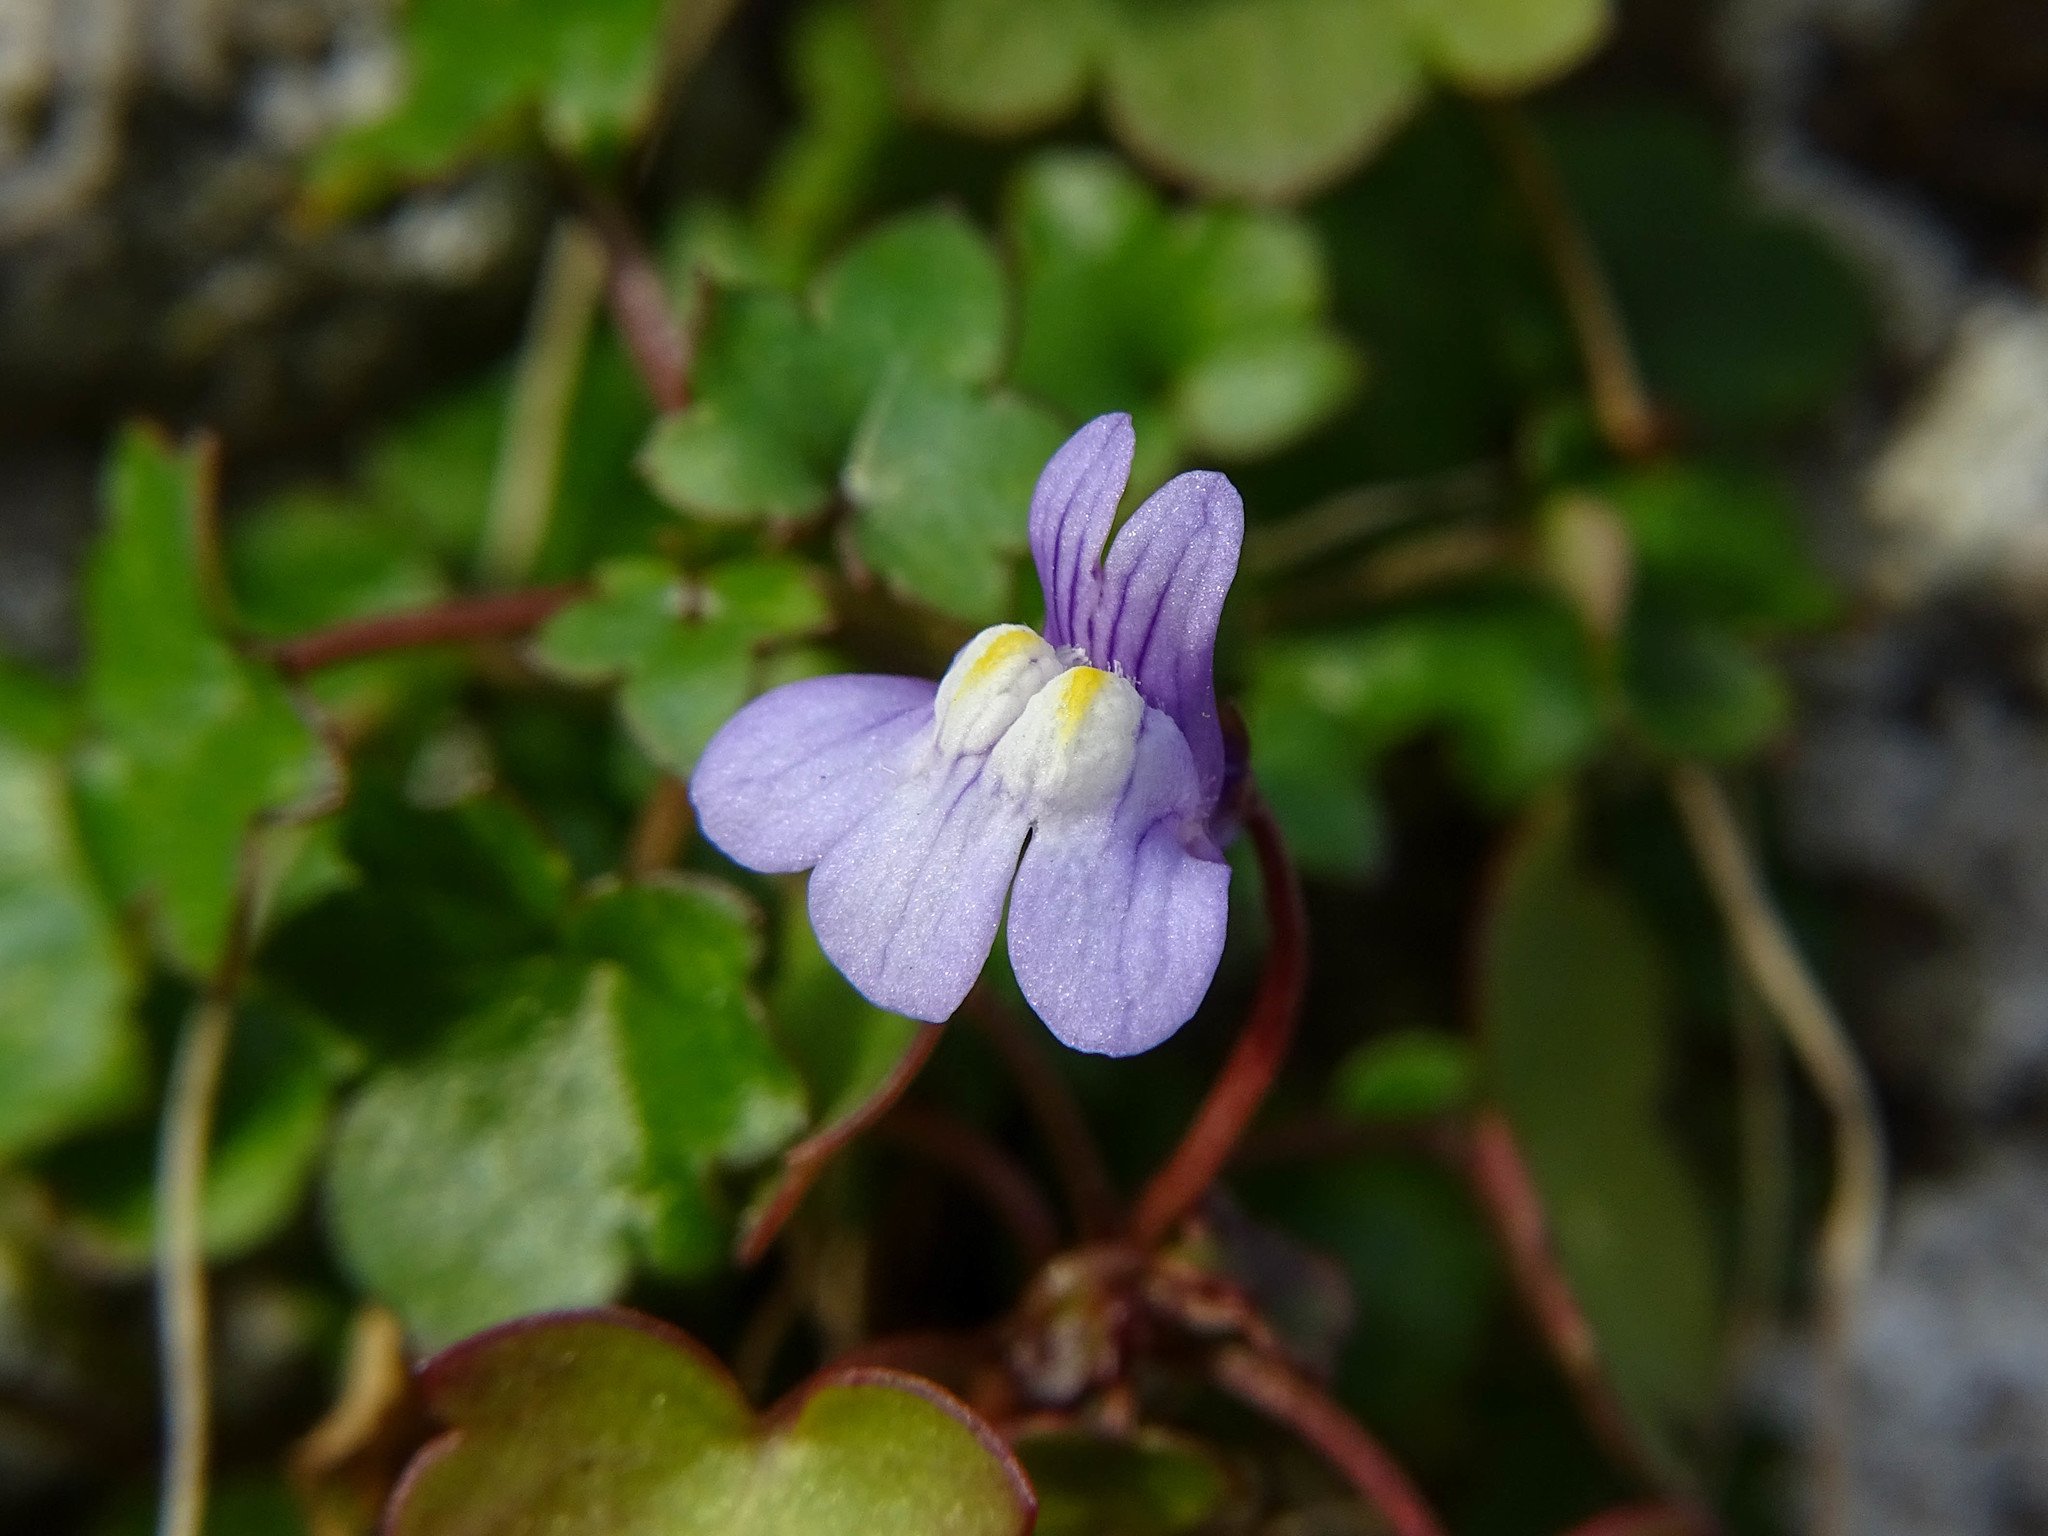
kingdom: Plantae
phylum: Tracheophyta
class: Magnoliopsida
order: Lamiales
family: Plantaginaceae
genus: Cymbalaria
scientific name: Cymbalaria muralis
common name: Ivy-leaved toadflax
